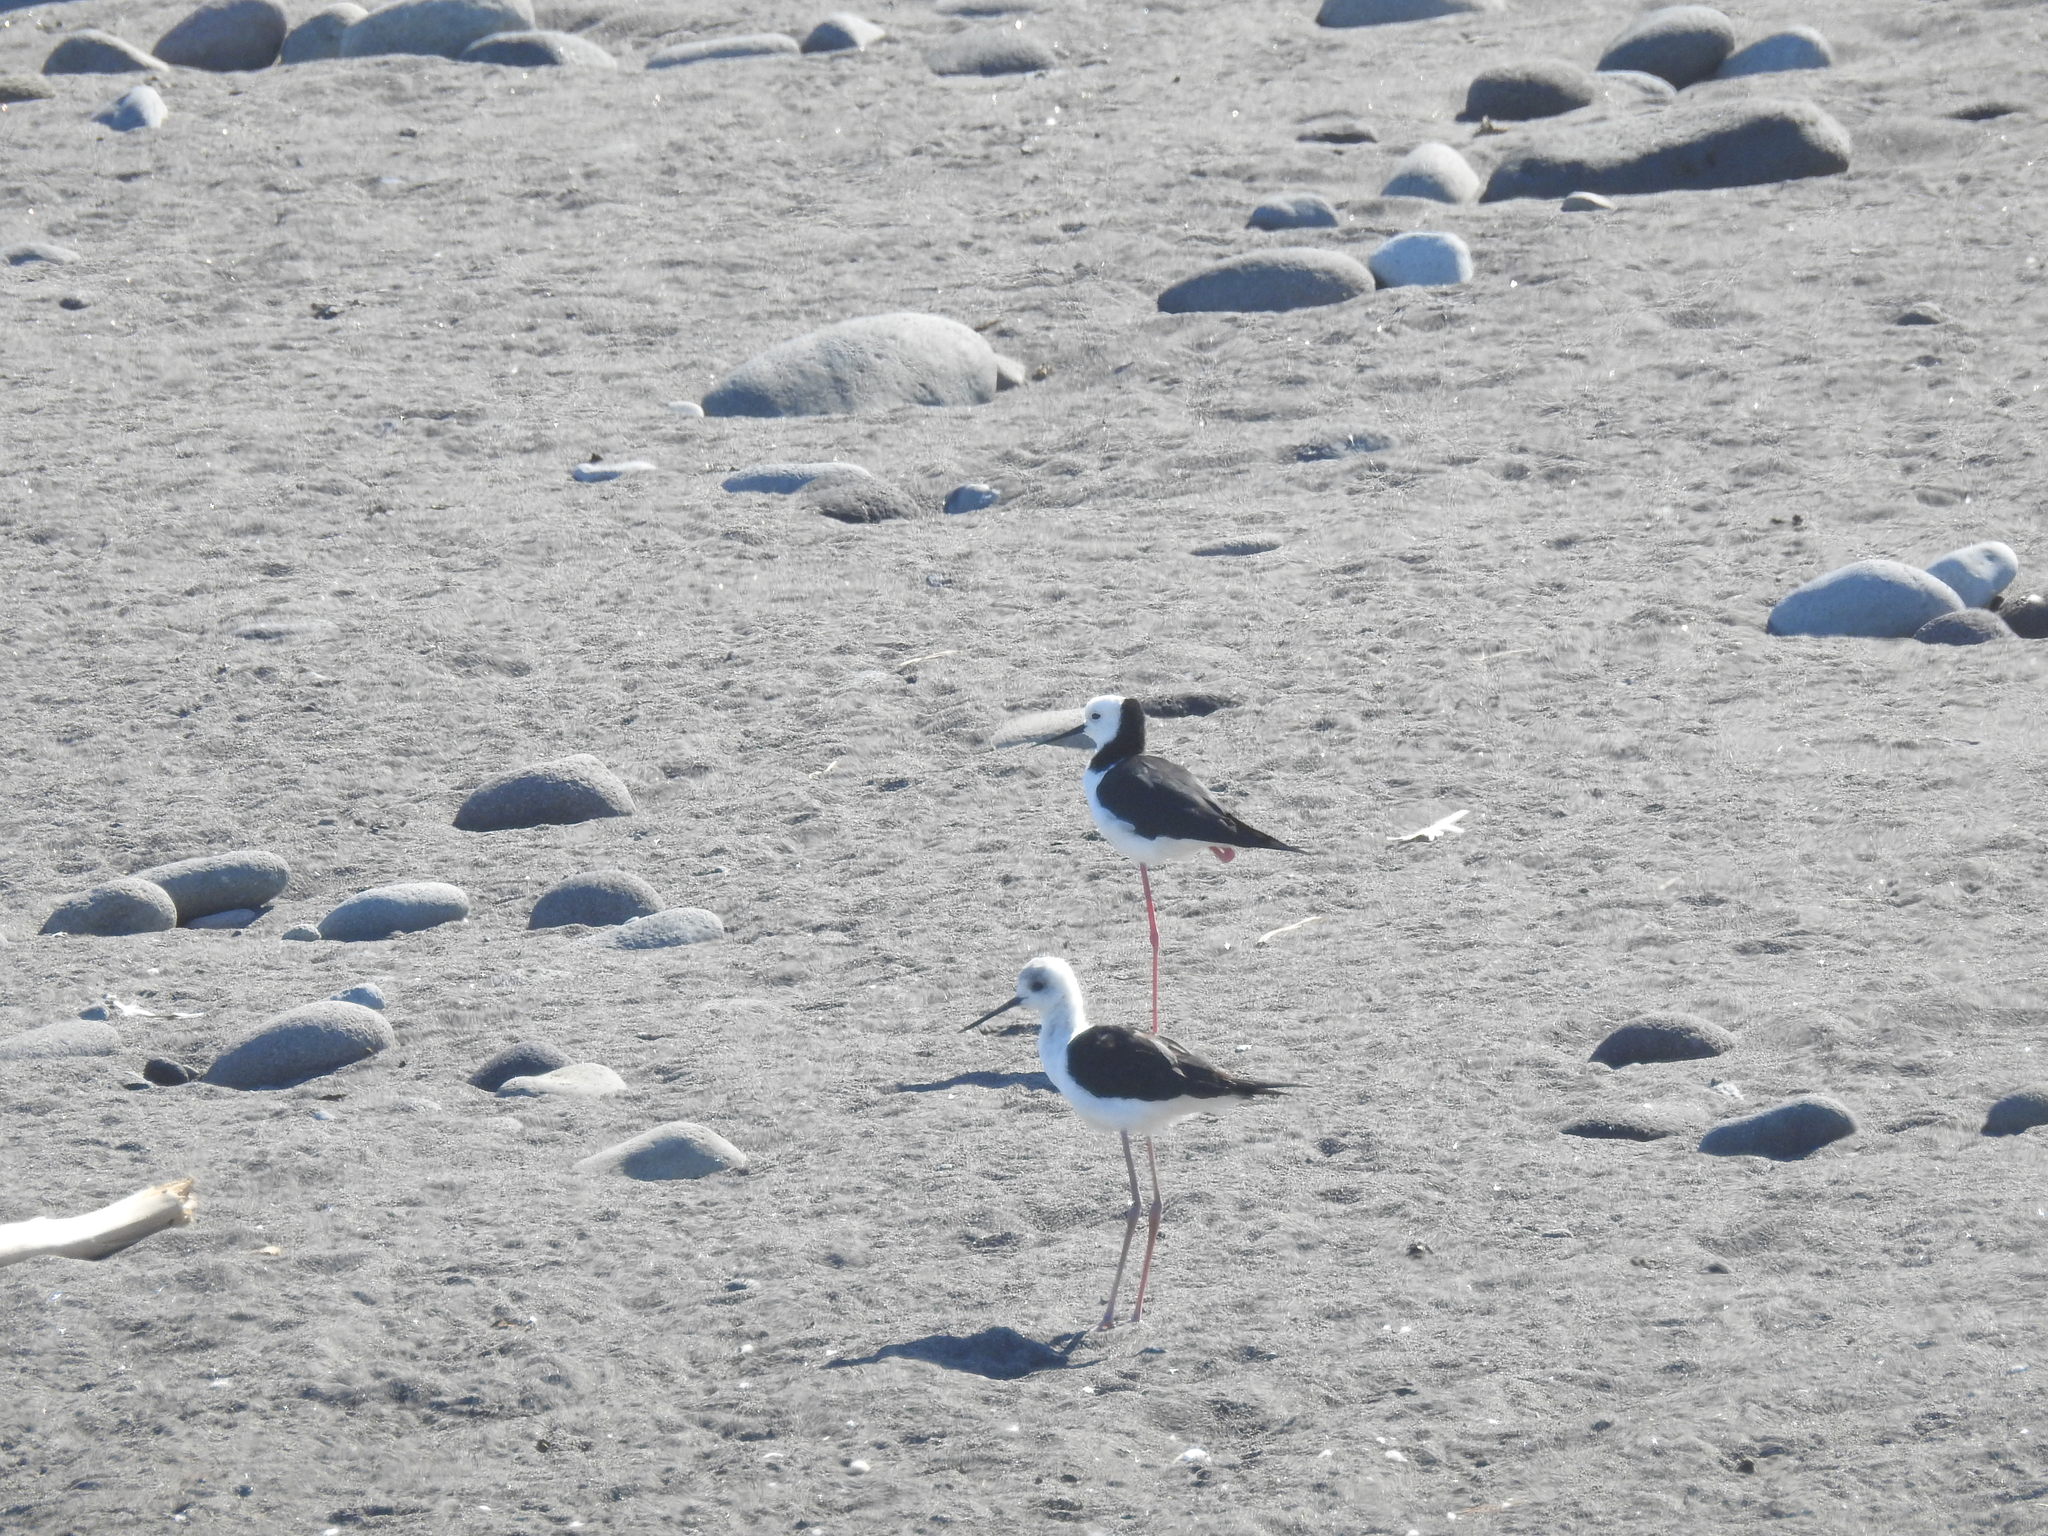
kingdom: Animalia
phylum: Chordata
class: Aves
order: Charadriiformes
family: Recurvirostridae
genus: Himantopus
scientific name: Himantopus leucocephalus
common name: White-headed stilt
